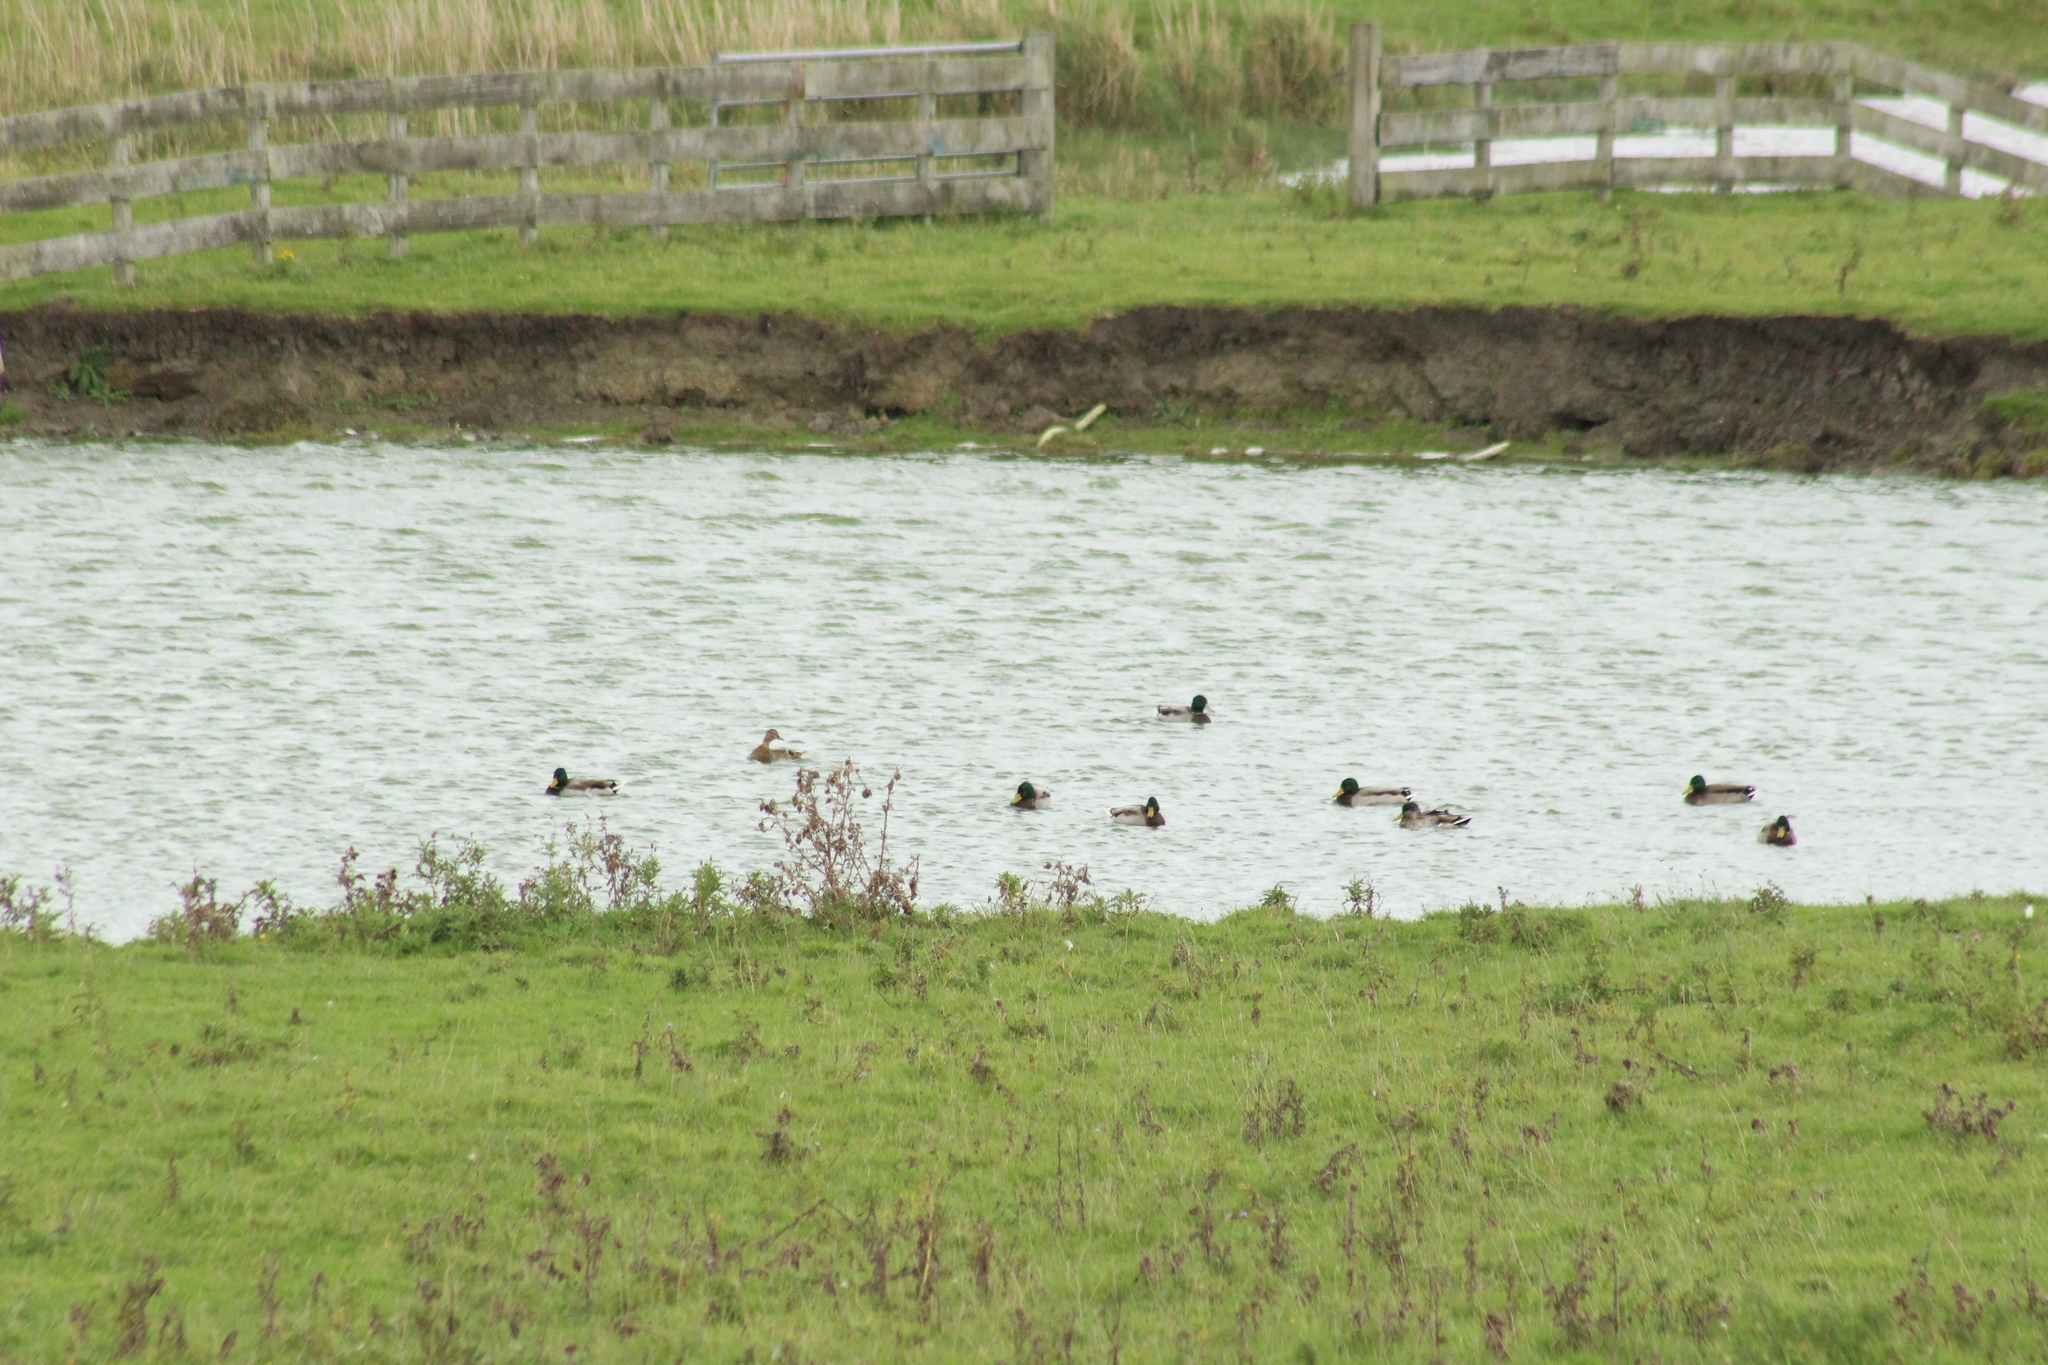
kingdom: Animalia
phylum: Chordata
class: Aves
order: Anseriformes
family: Anatidae
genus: Anas
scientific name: Anas platyrhynchos
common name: Mallard
